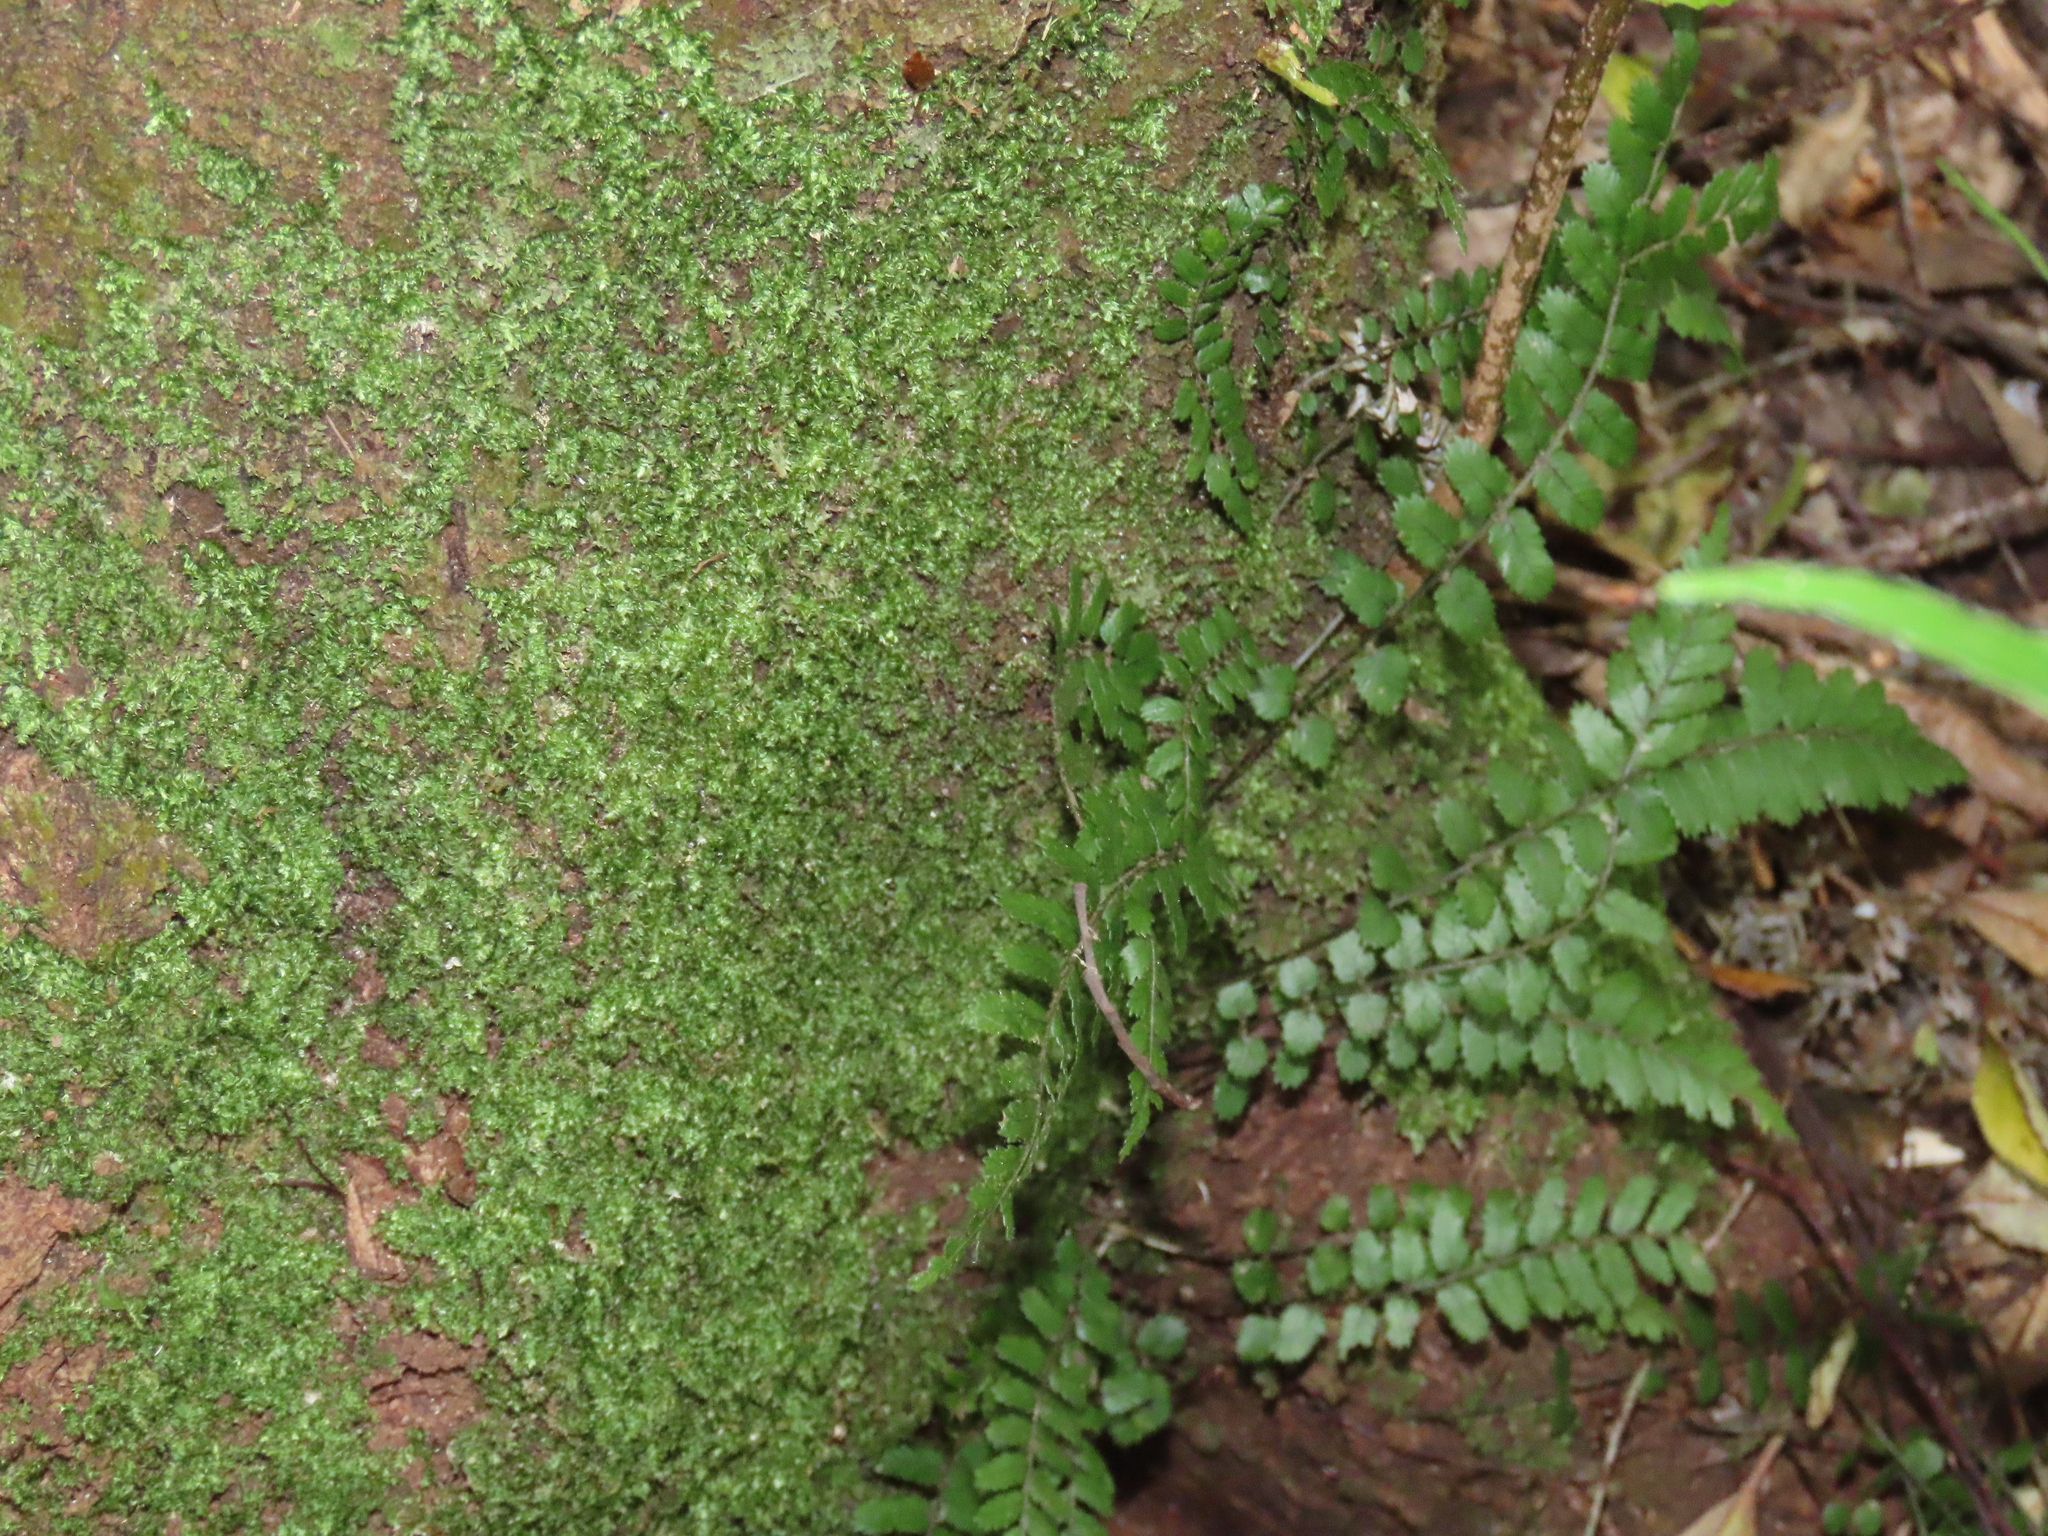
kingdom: Plantae
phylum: Tracheophyta
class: Polypodiopsida
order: Polypodiales
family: Blechnaceae
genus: Icarus
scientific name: Icarus filiformis
